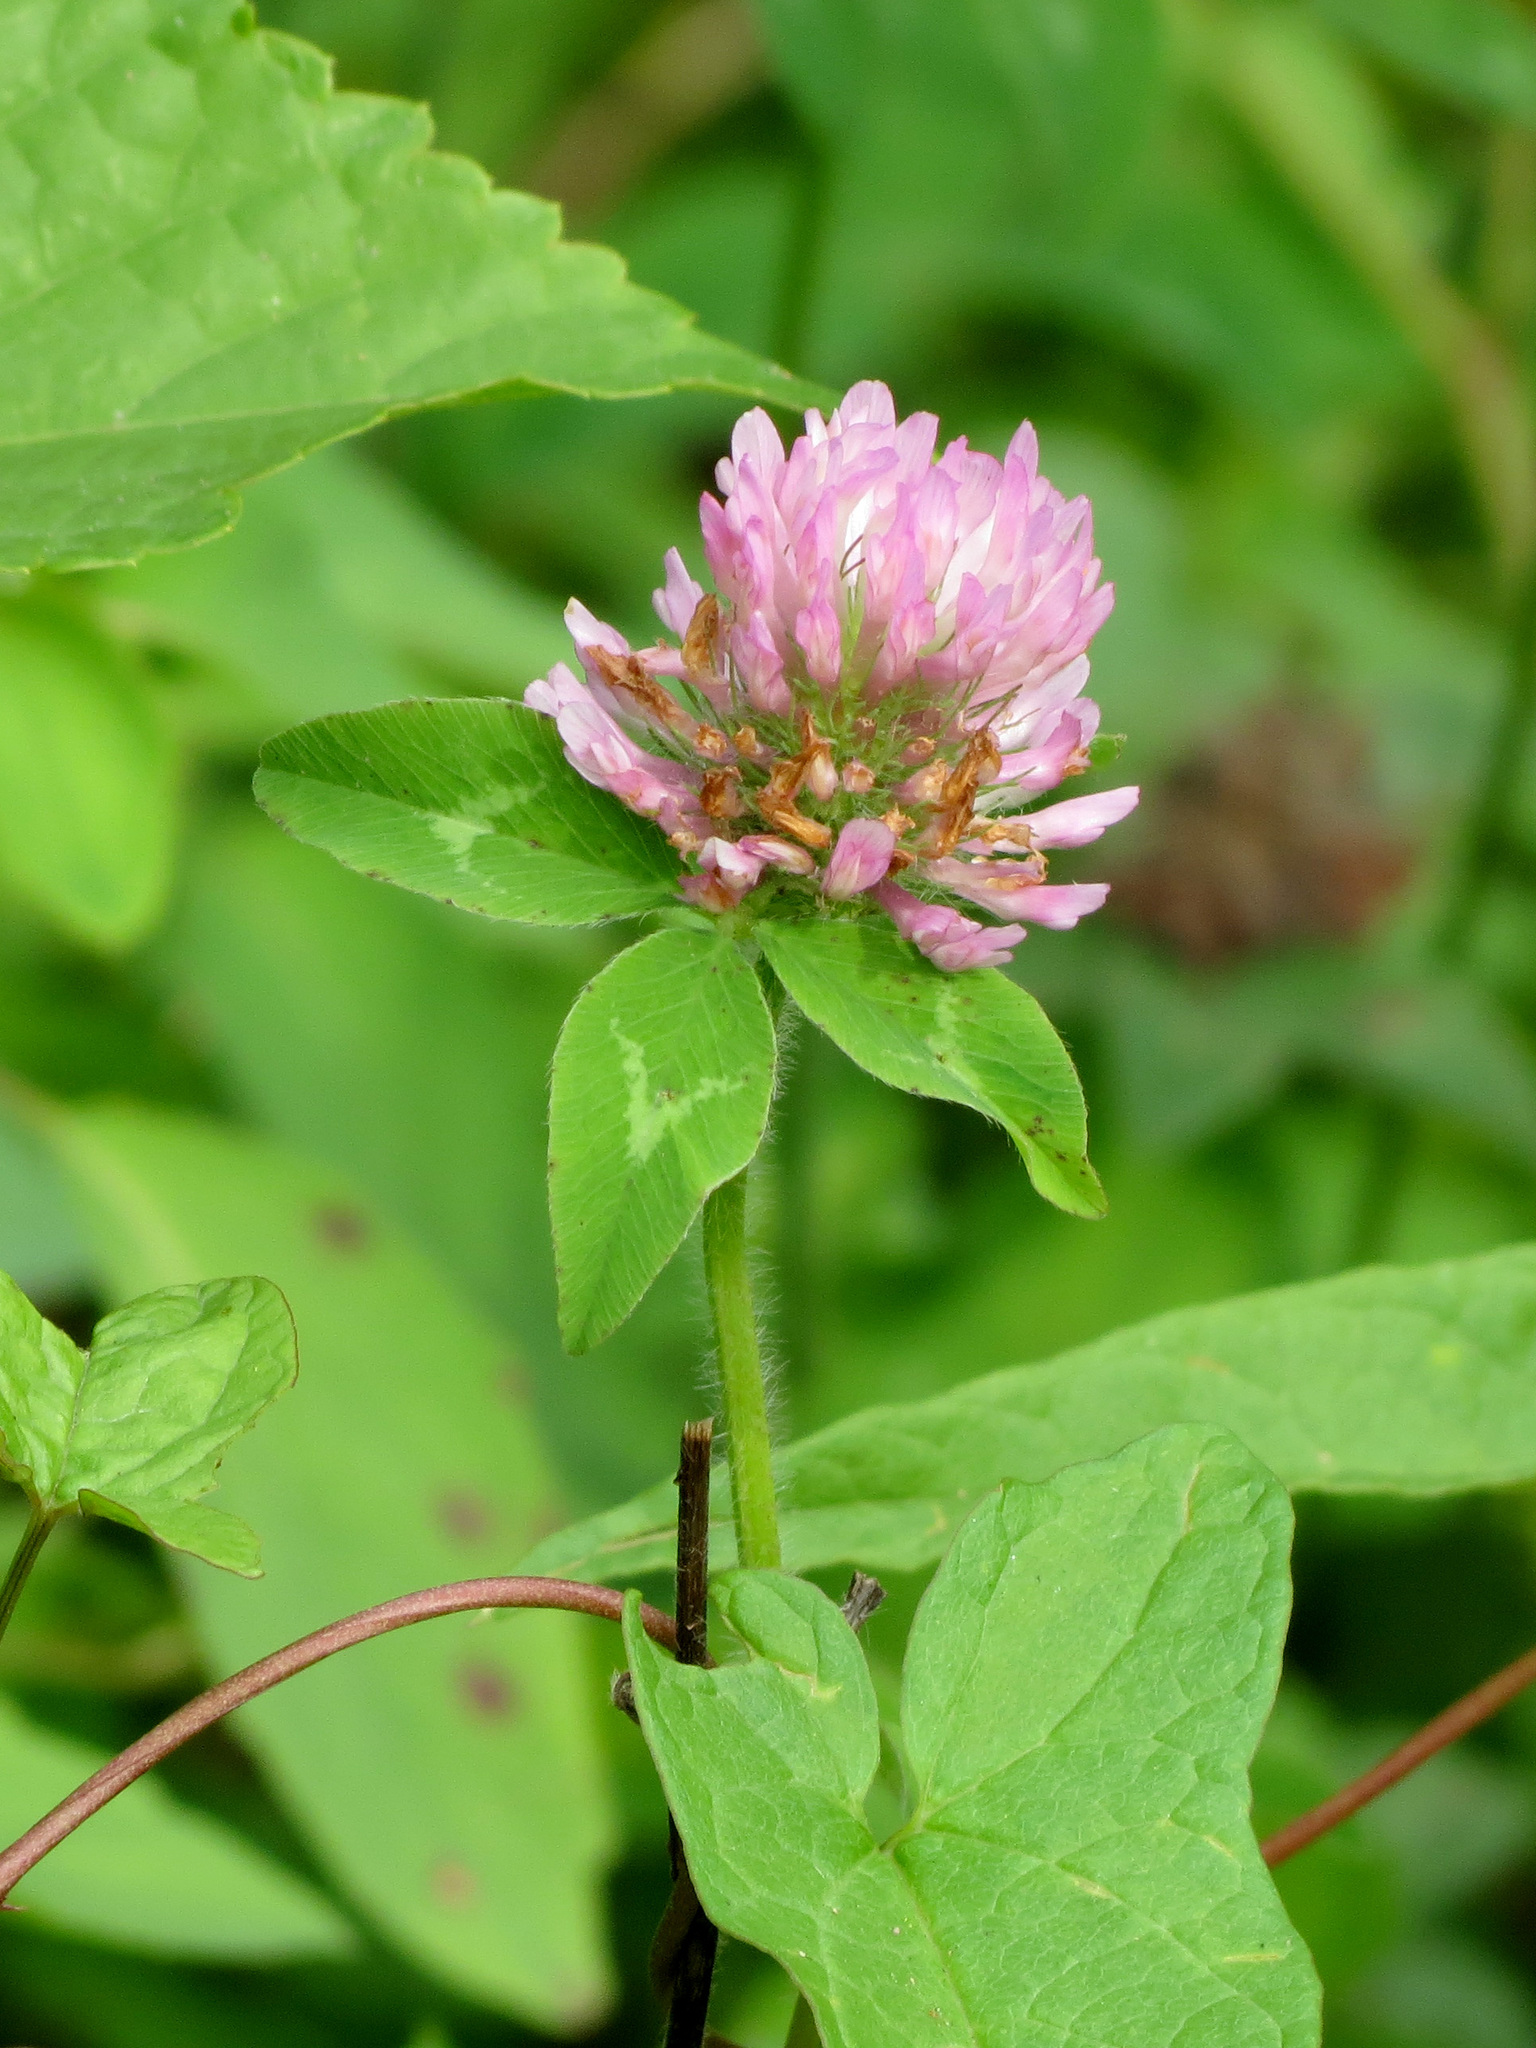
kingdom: Plantae
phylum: Tracheophyta
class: Magnoliopsida
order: Fabales
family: Fabaceae
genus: Trifolium
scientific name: Trifolium pratense
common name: Red clover
